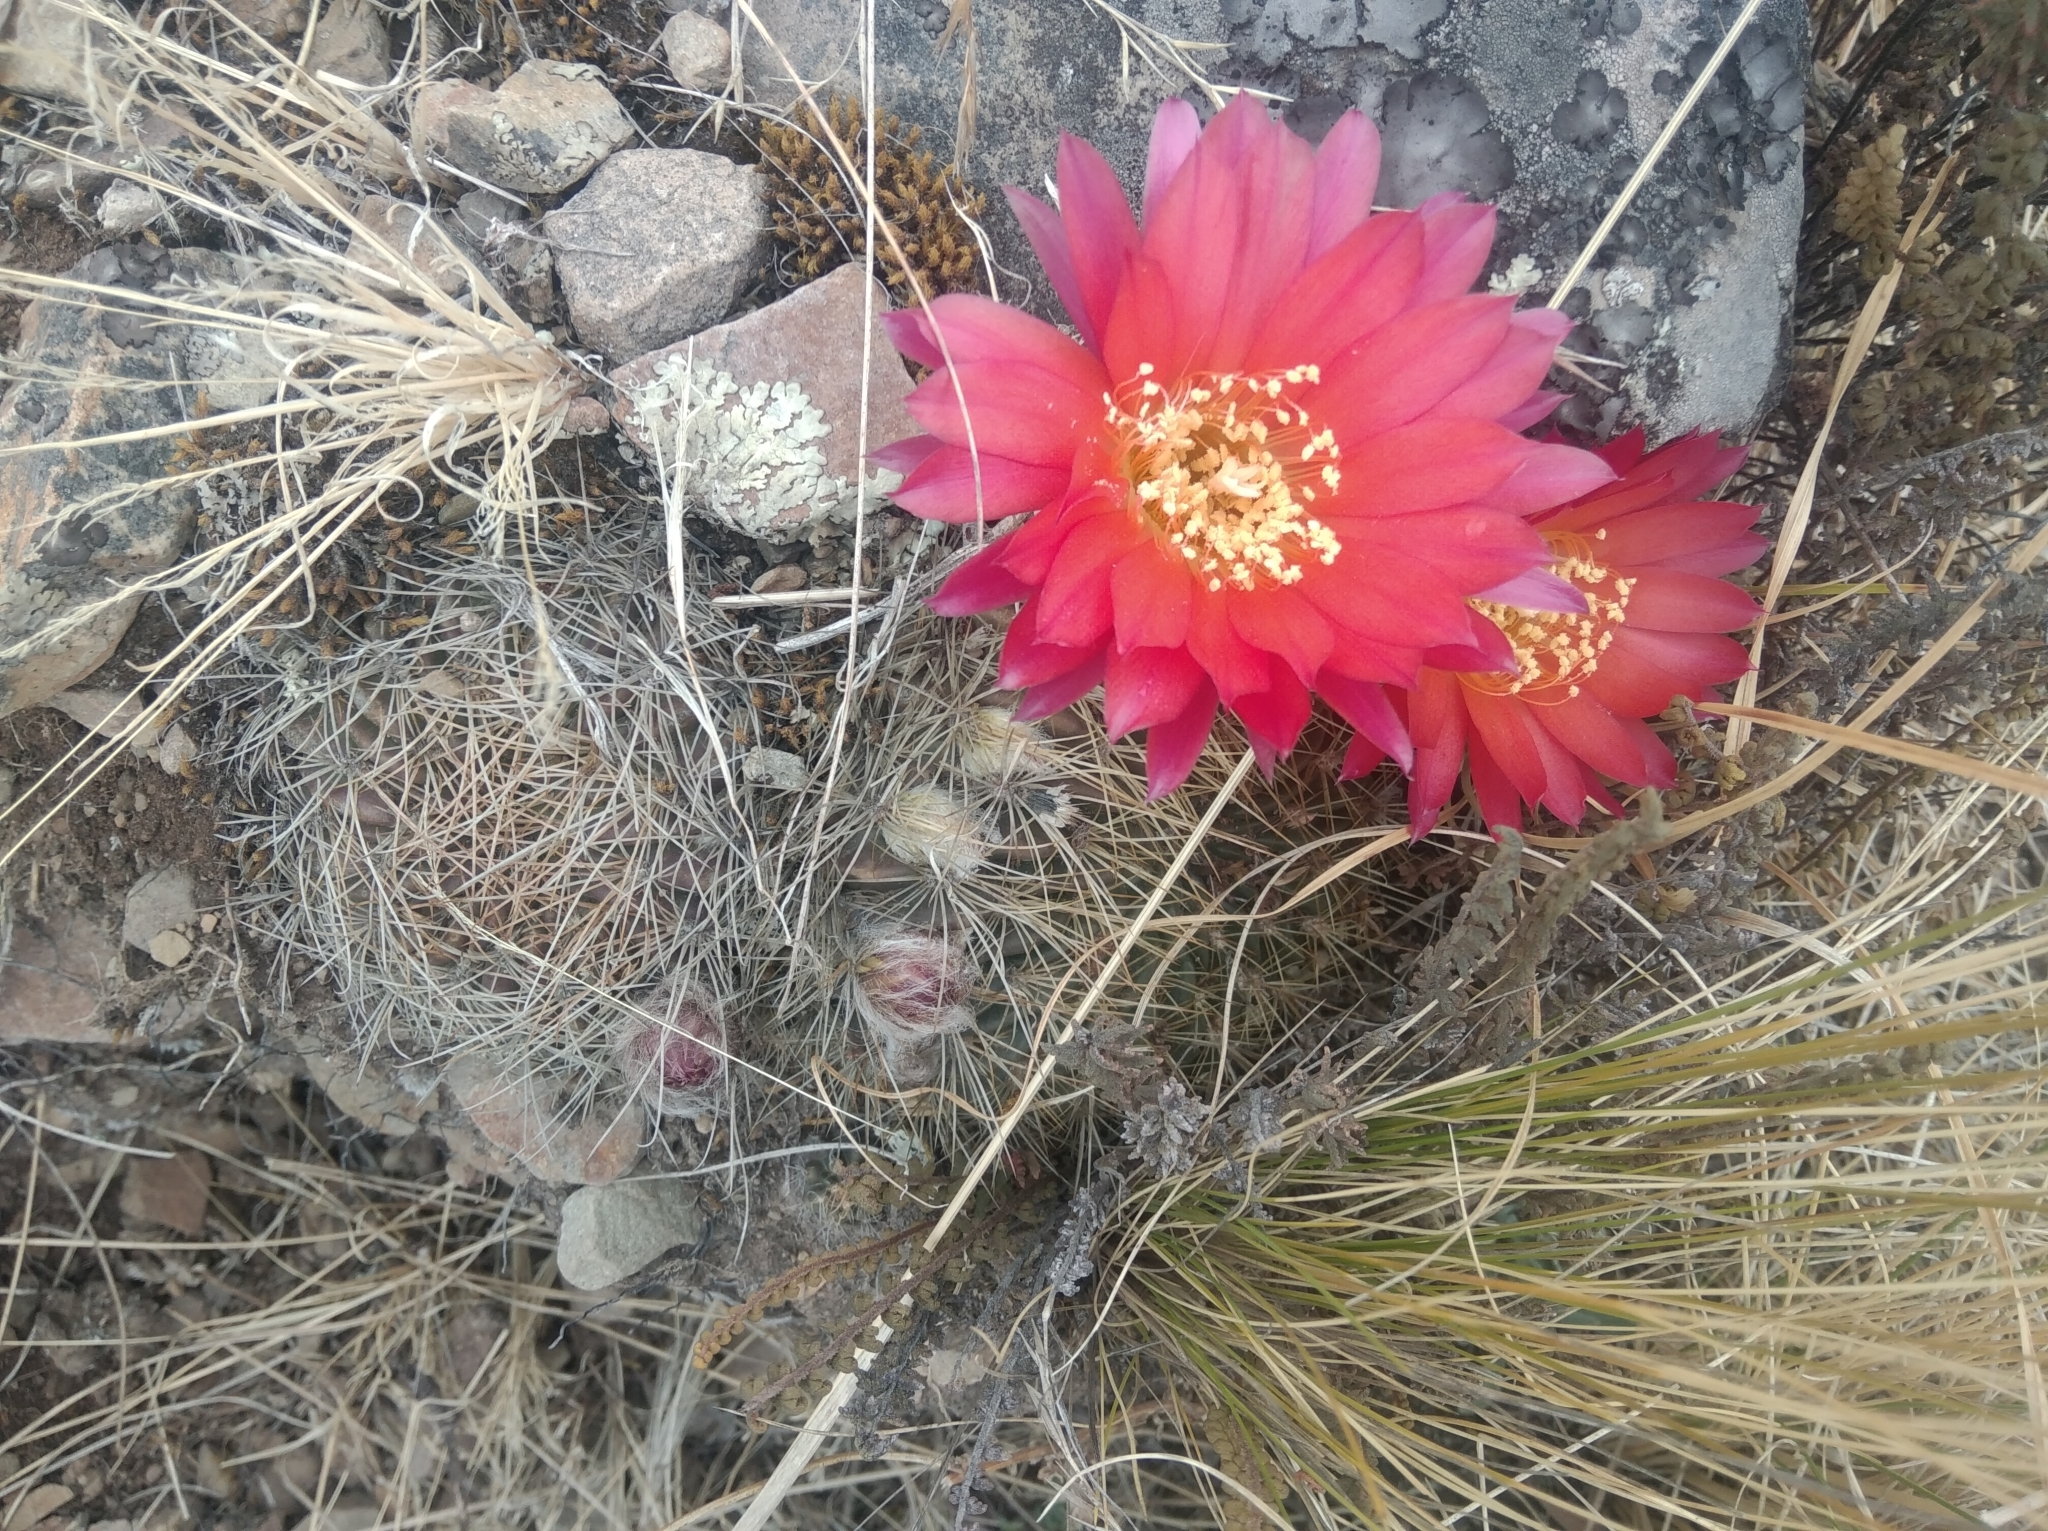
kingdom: Plantae
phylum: Tracheophyta
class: Magnoliopsida
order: Caryophyllales
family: Cactaceae
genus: Lobivia
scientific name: Lobivia chrysochete
